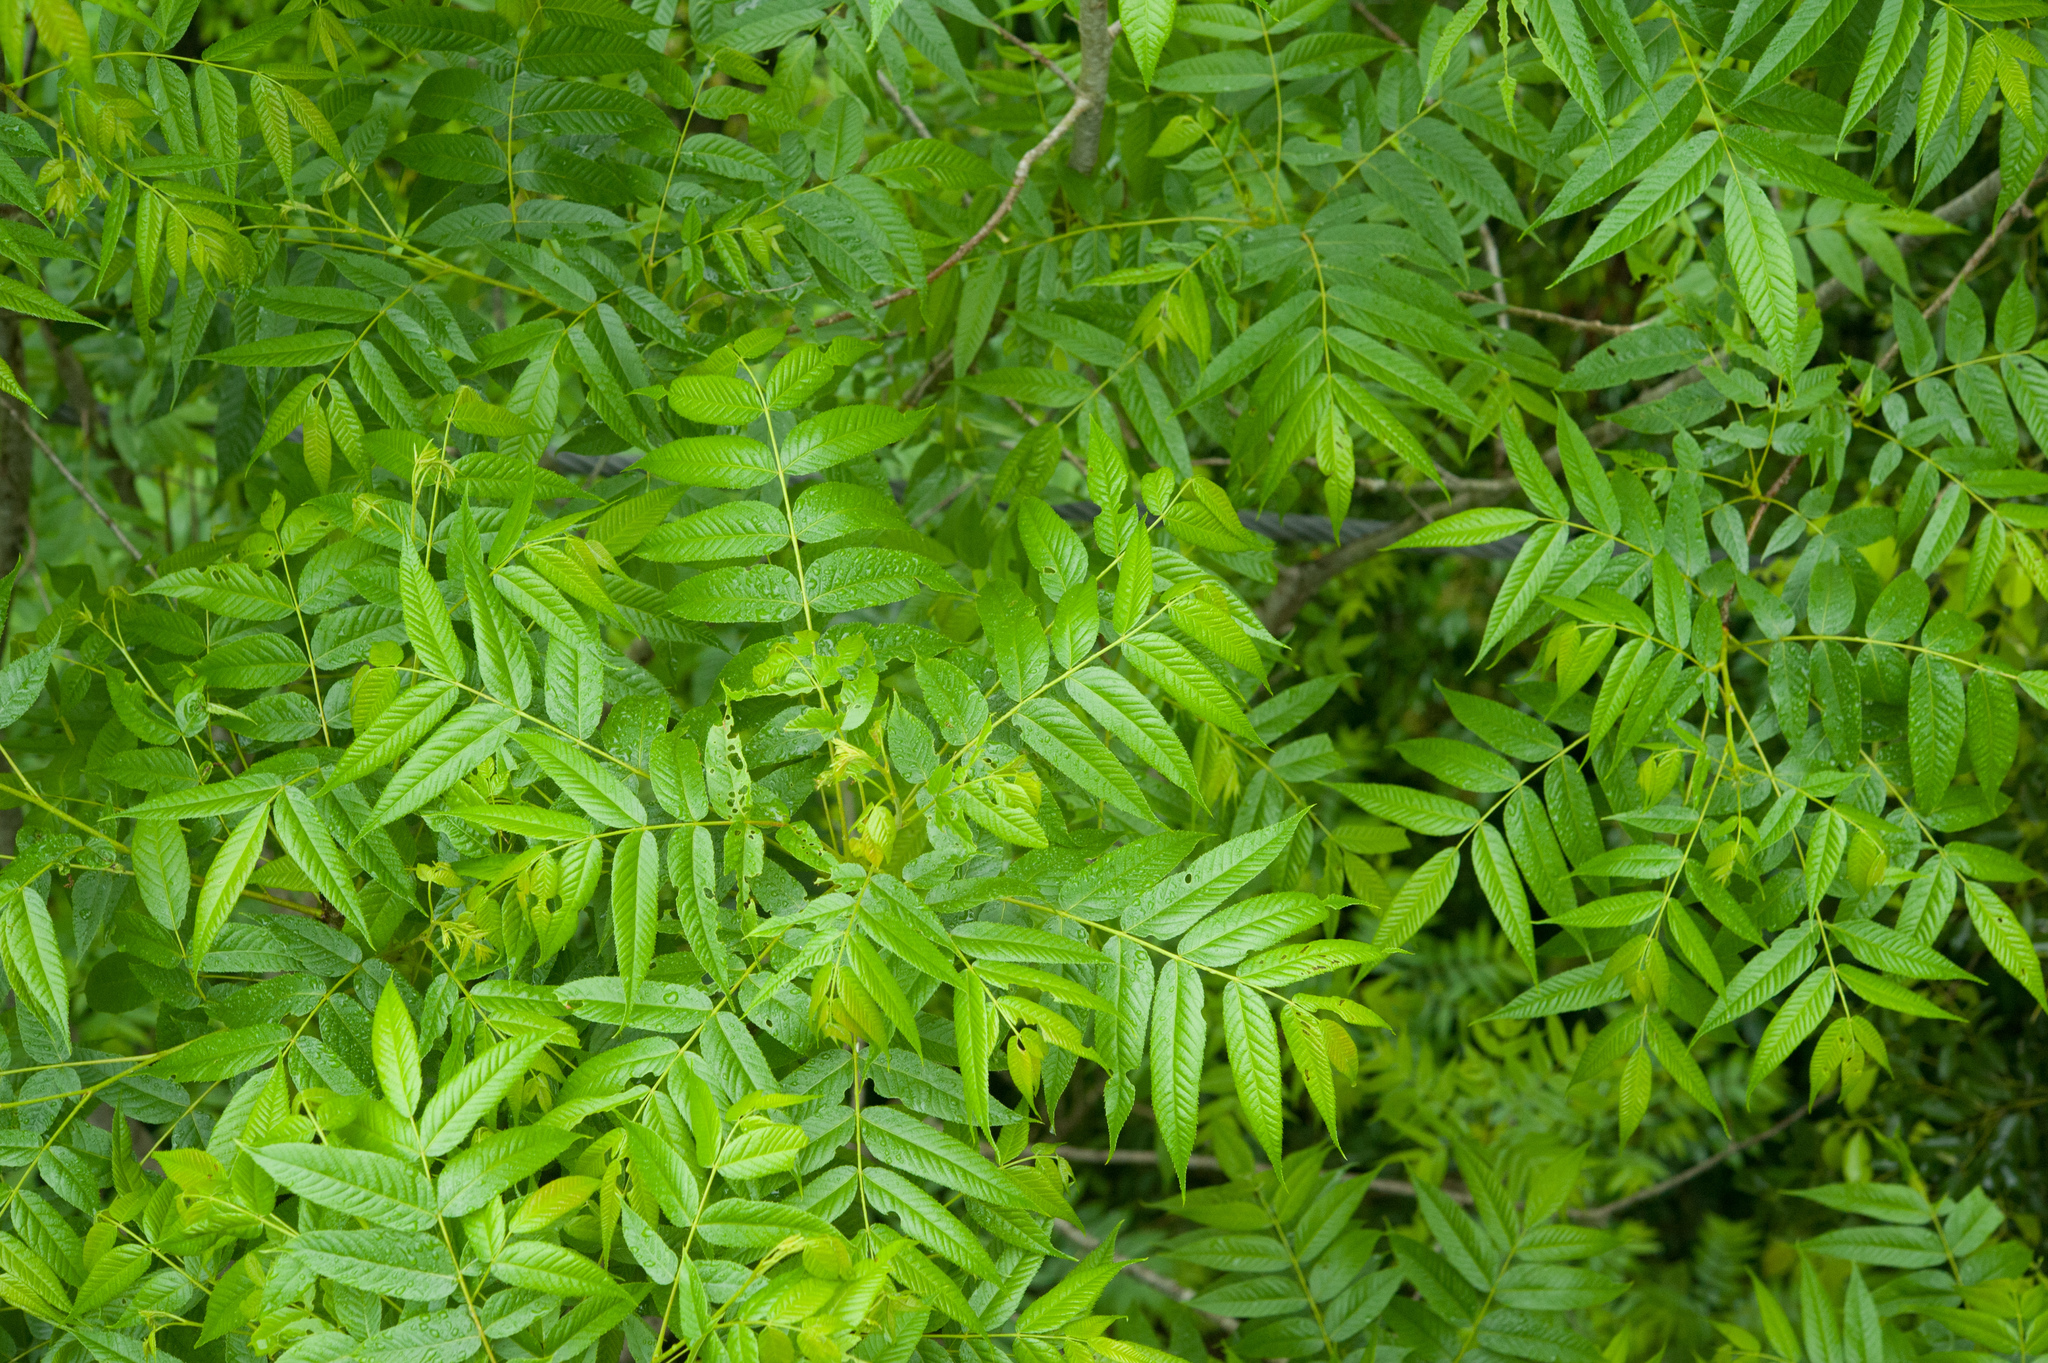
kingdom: Plantae
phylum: Tracheophyta
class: Magnoliopsida
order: Fagales
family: Juglandaceae
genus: Platycarya
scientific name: Platycarya strobilacea
